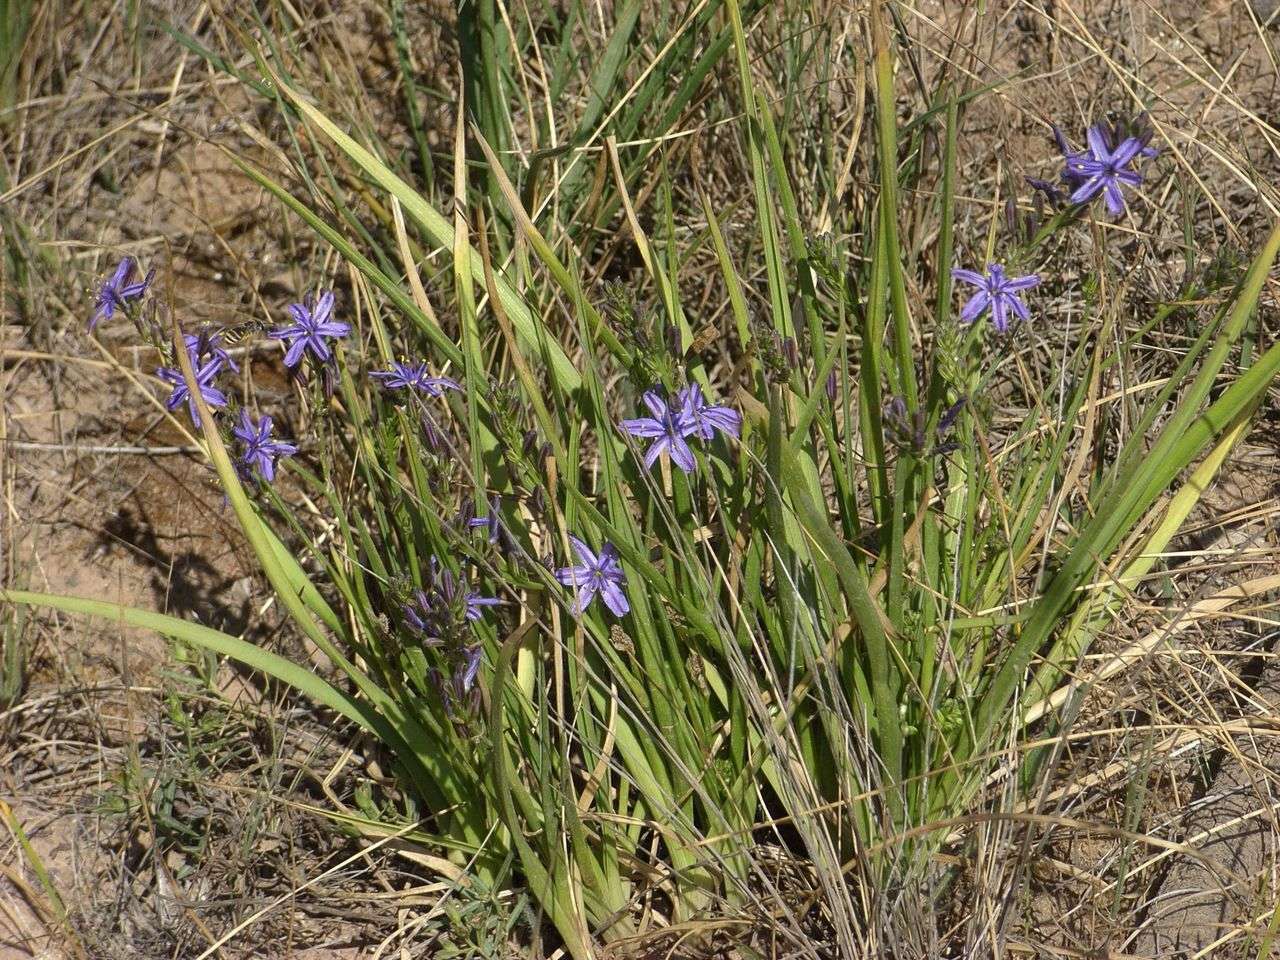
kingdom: Plantae
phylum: Tracheophyta
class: Liliopsida
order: Asparagales
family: Asphodelaceae
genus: Caesia
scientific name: Caesia calliantha
